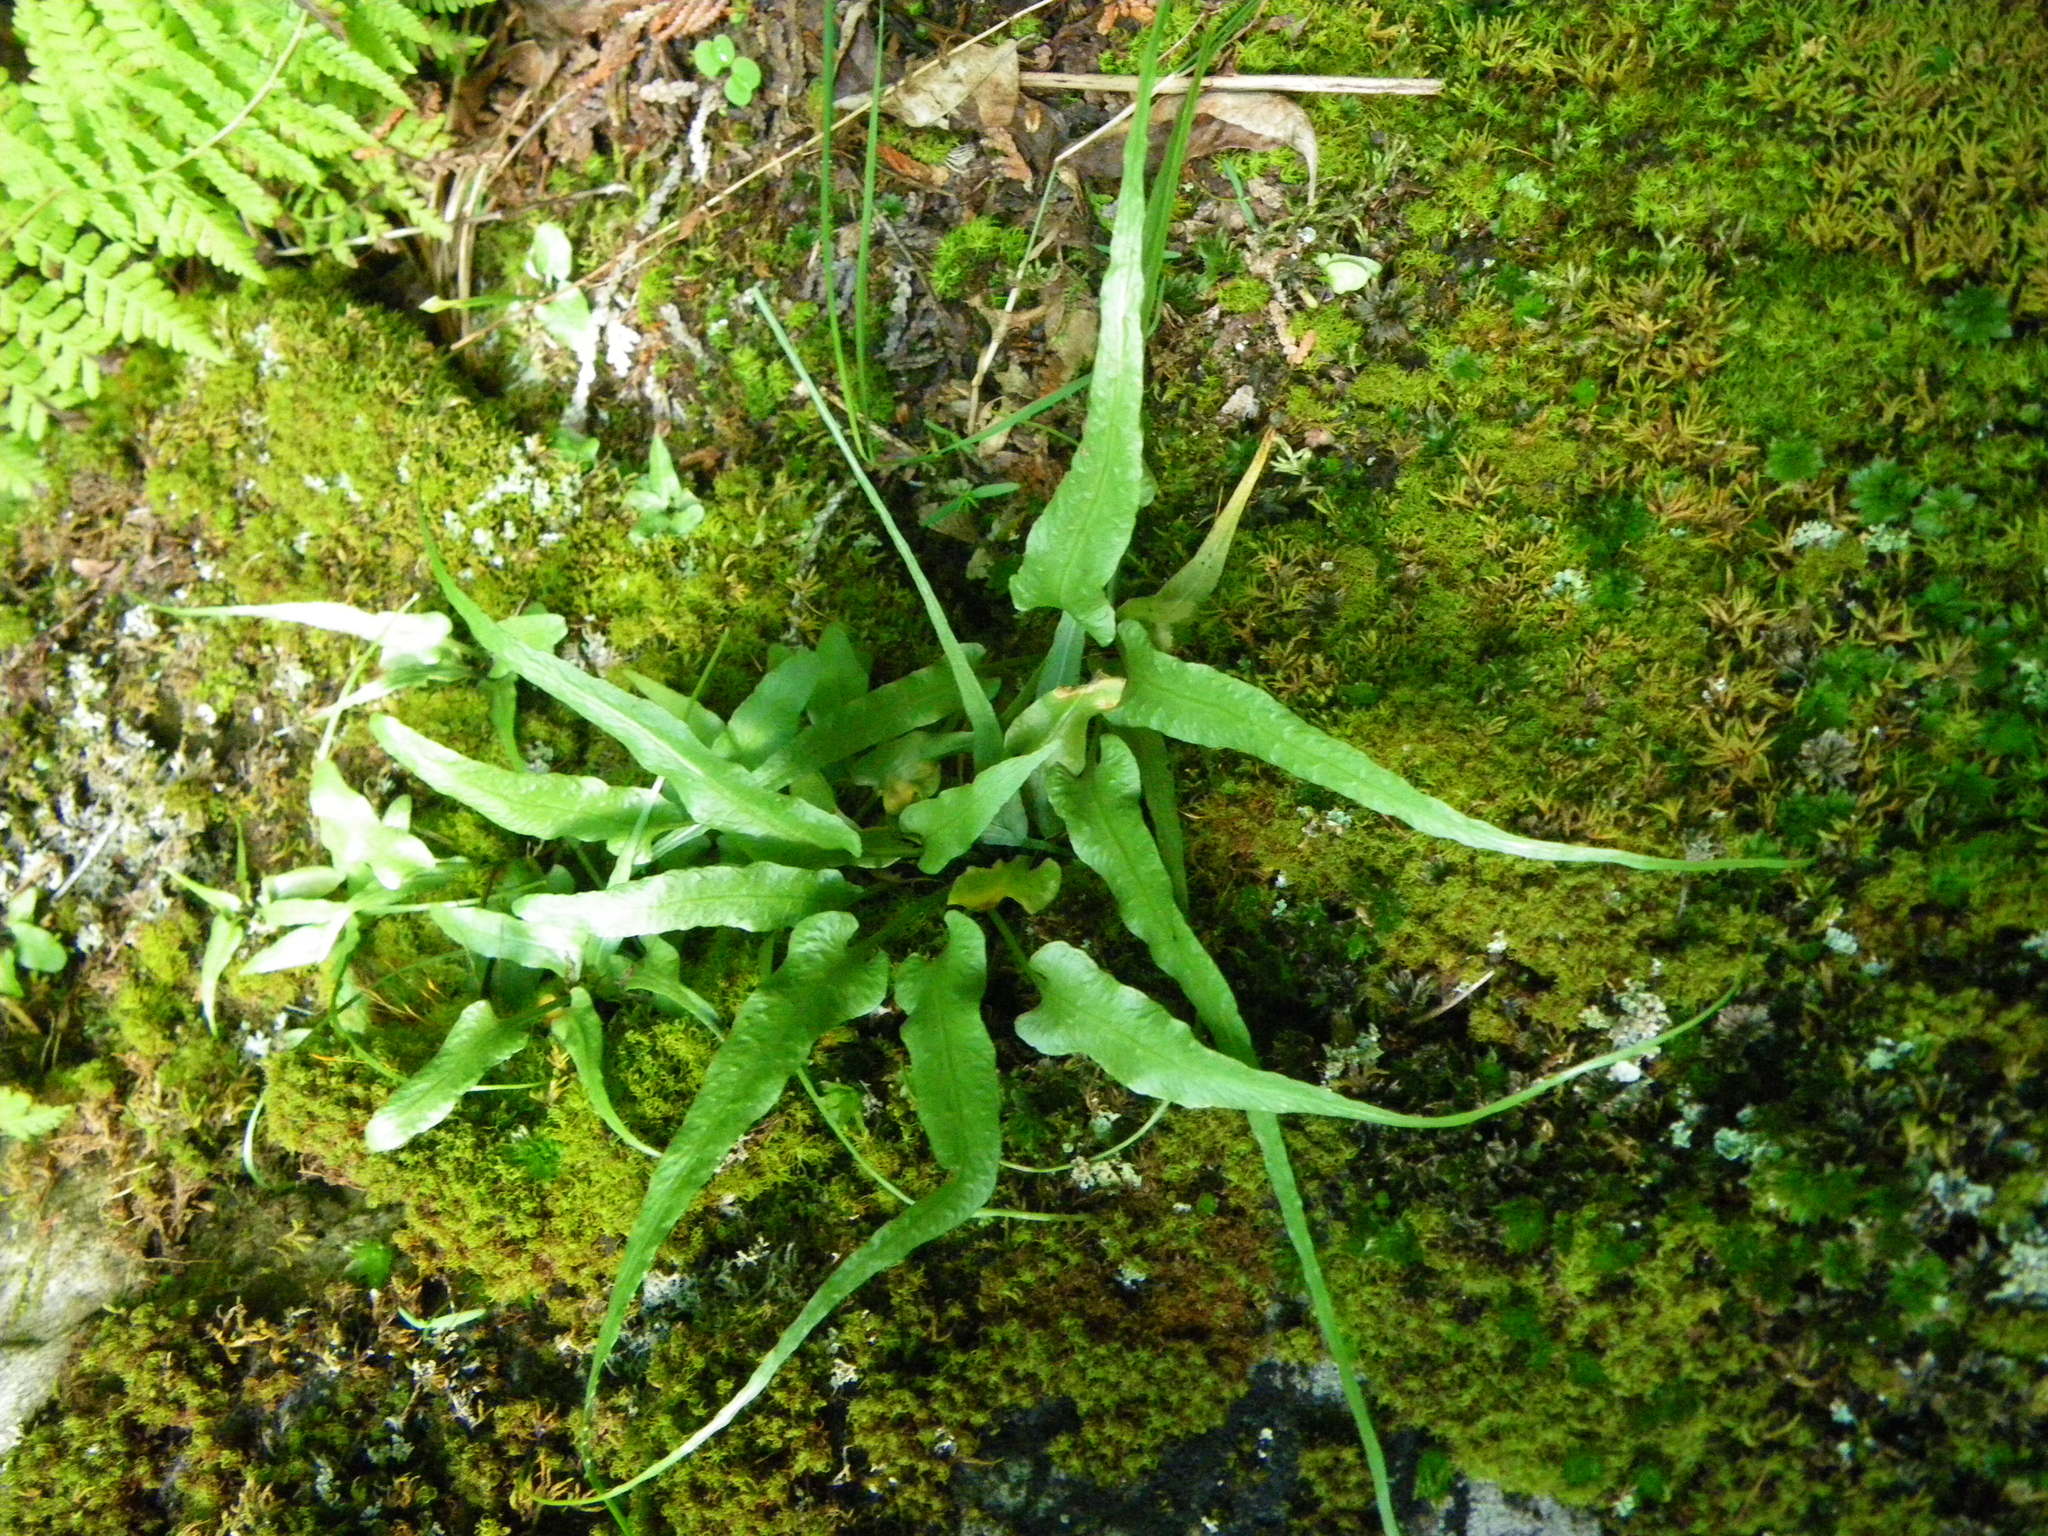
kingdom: Plantae
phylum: Tracheophyta
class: Polypodiopsida
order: Polypodiales
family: Aspleniaceae
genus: Asplenium
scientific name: Asplenium rhizophyllum
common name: Walking fern
